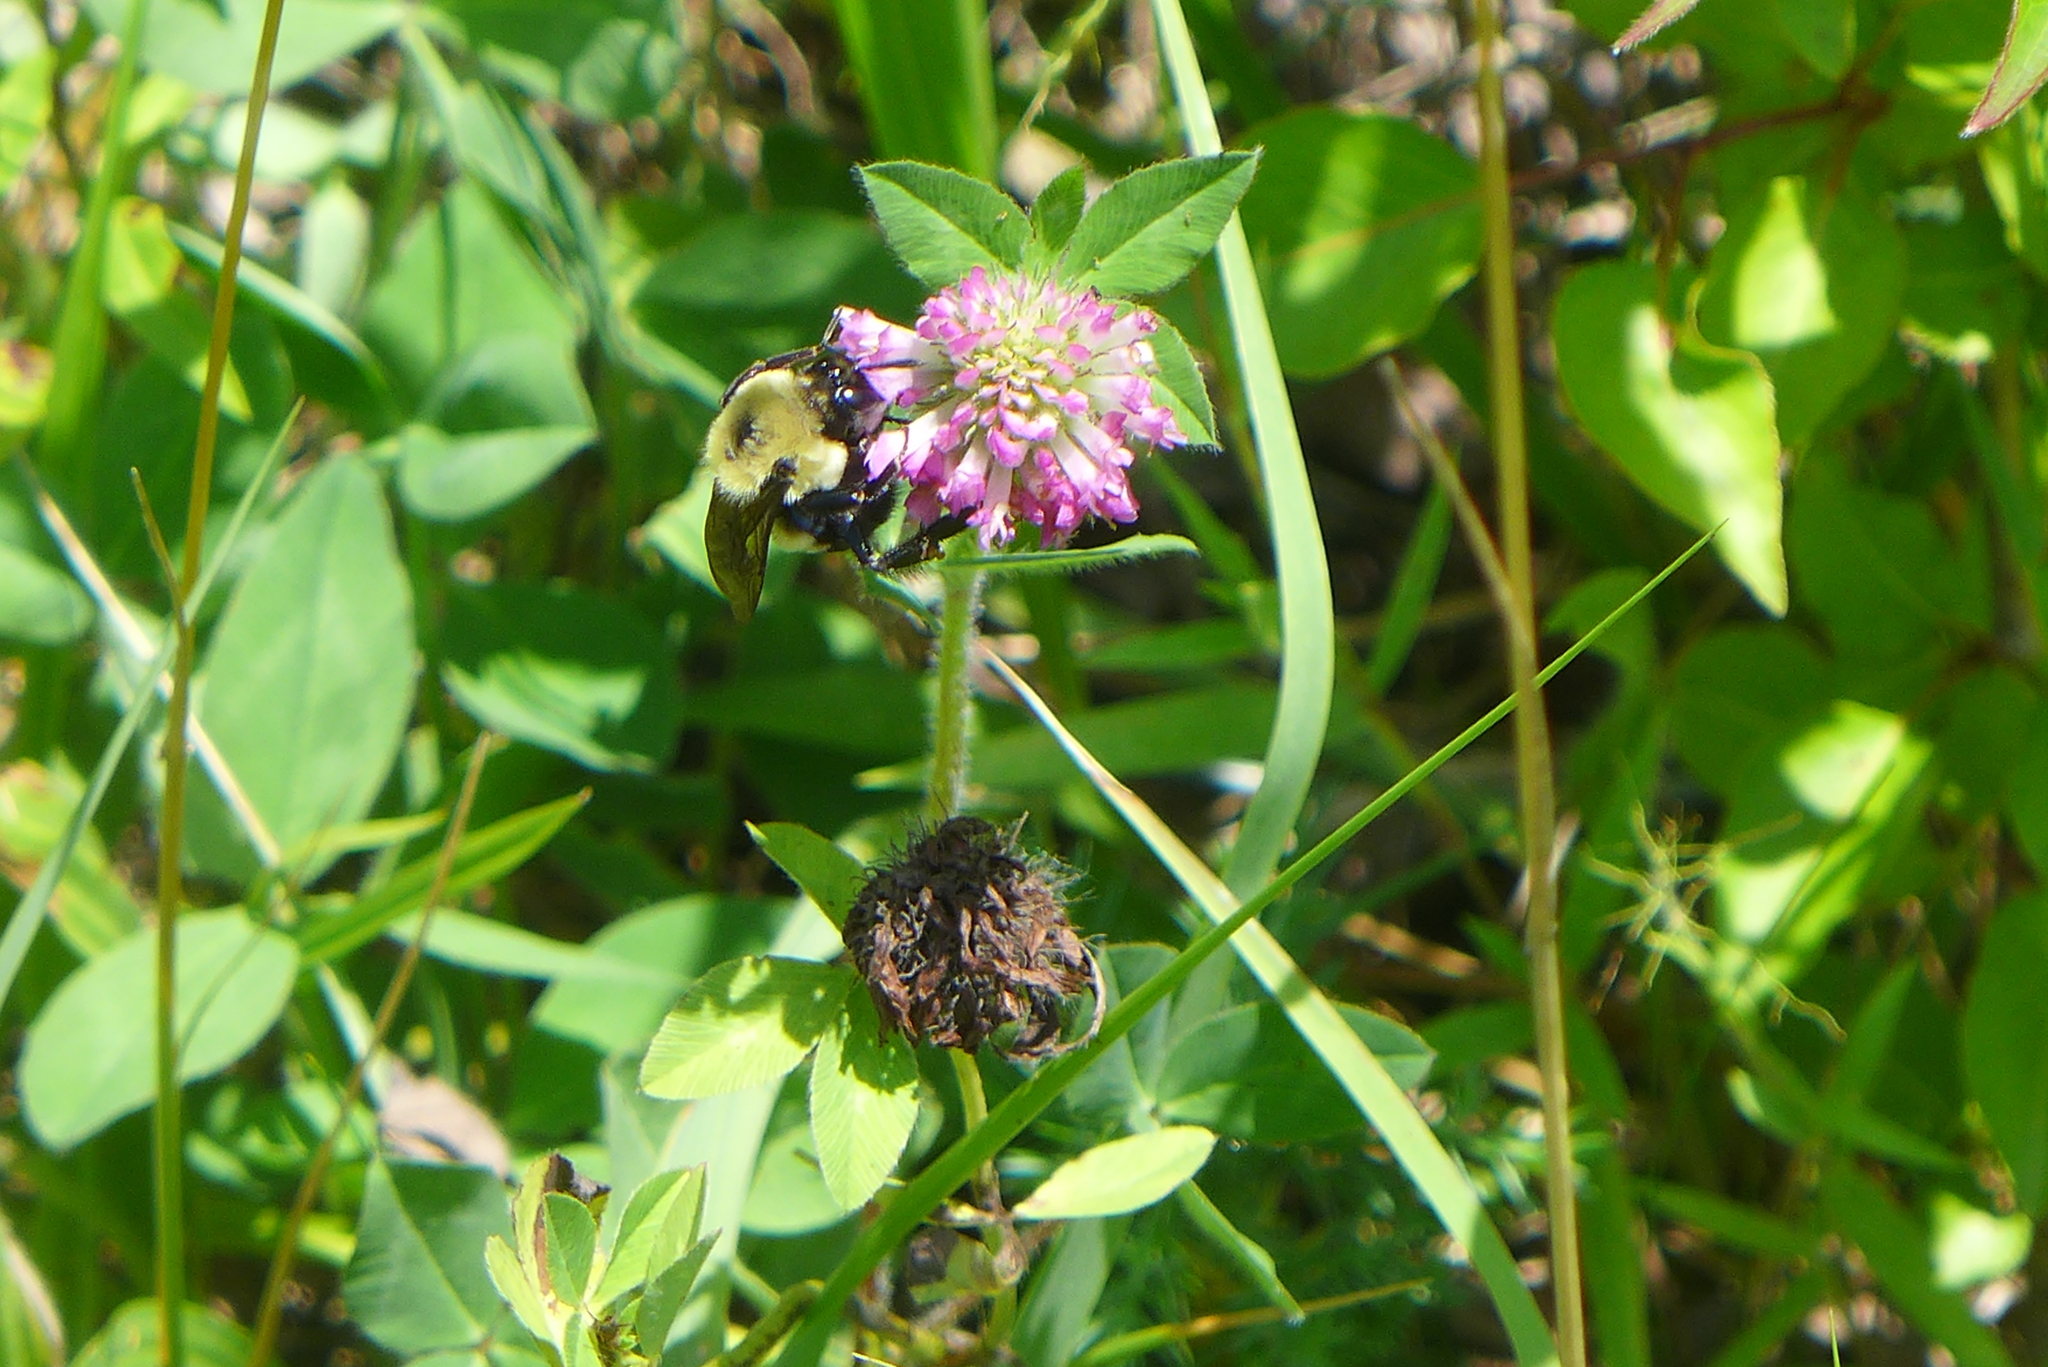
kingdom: Animalia
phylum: Arthropoda
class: Insecta
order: Hymenoptera
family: Apidae
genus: Bombus
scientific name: Bombus griseocollis
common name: Brown-belted bumble bee
